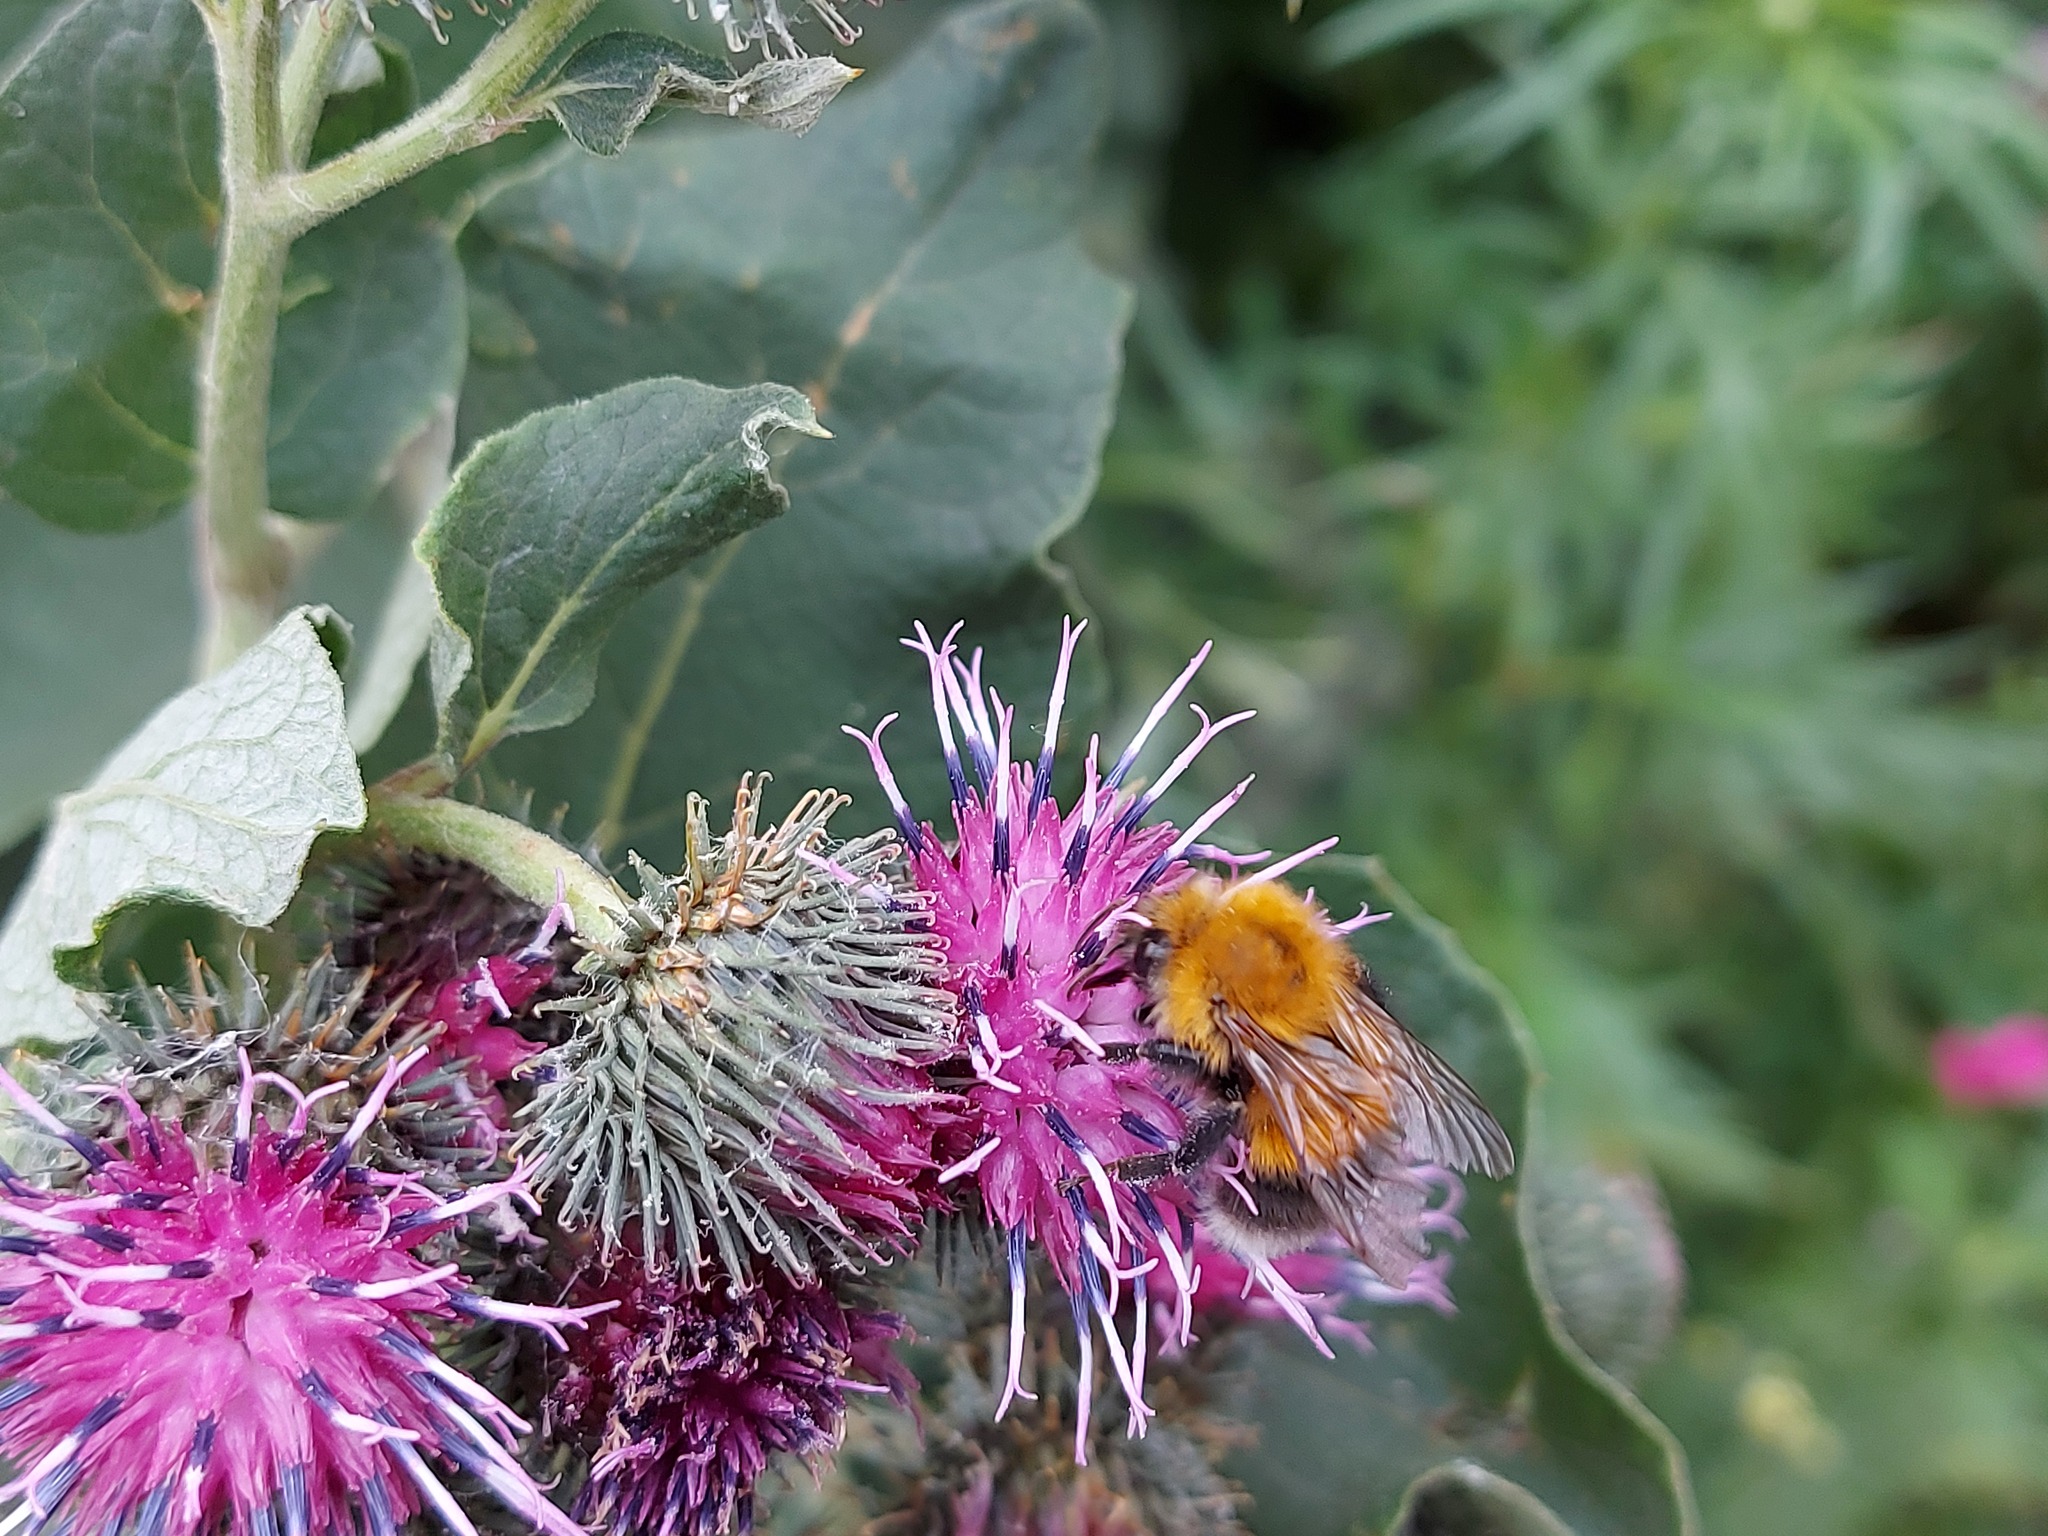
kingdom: Animalia
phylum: Arthropoda
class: Insecta
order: Hymenoptera
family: Apidae
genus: Bombus
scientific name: Bombus hypnorum
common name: New garden bumblebee
